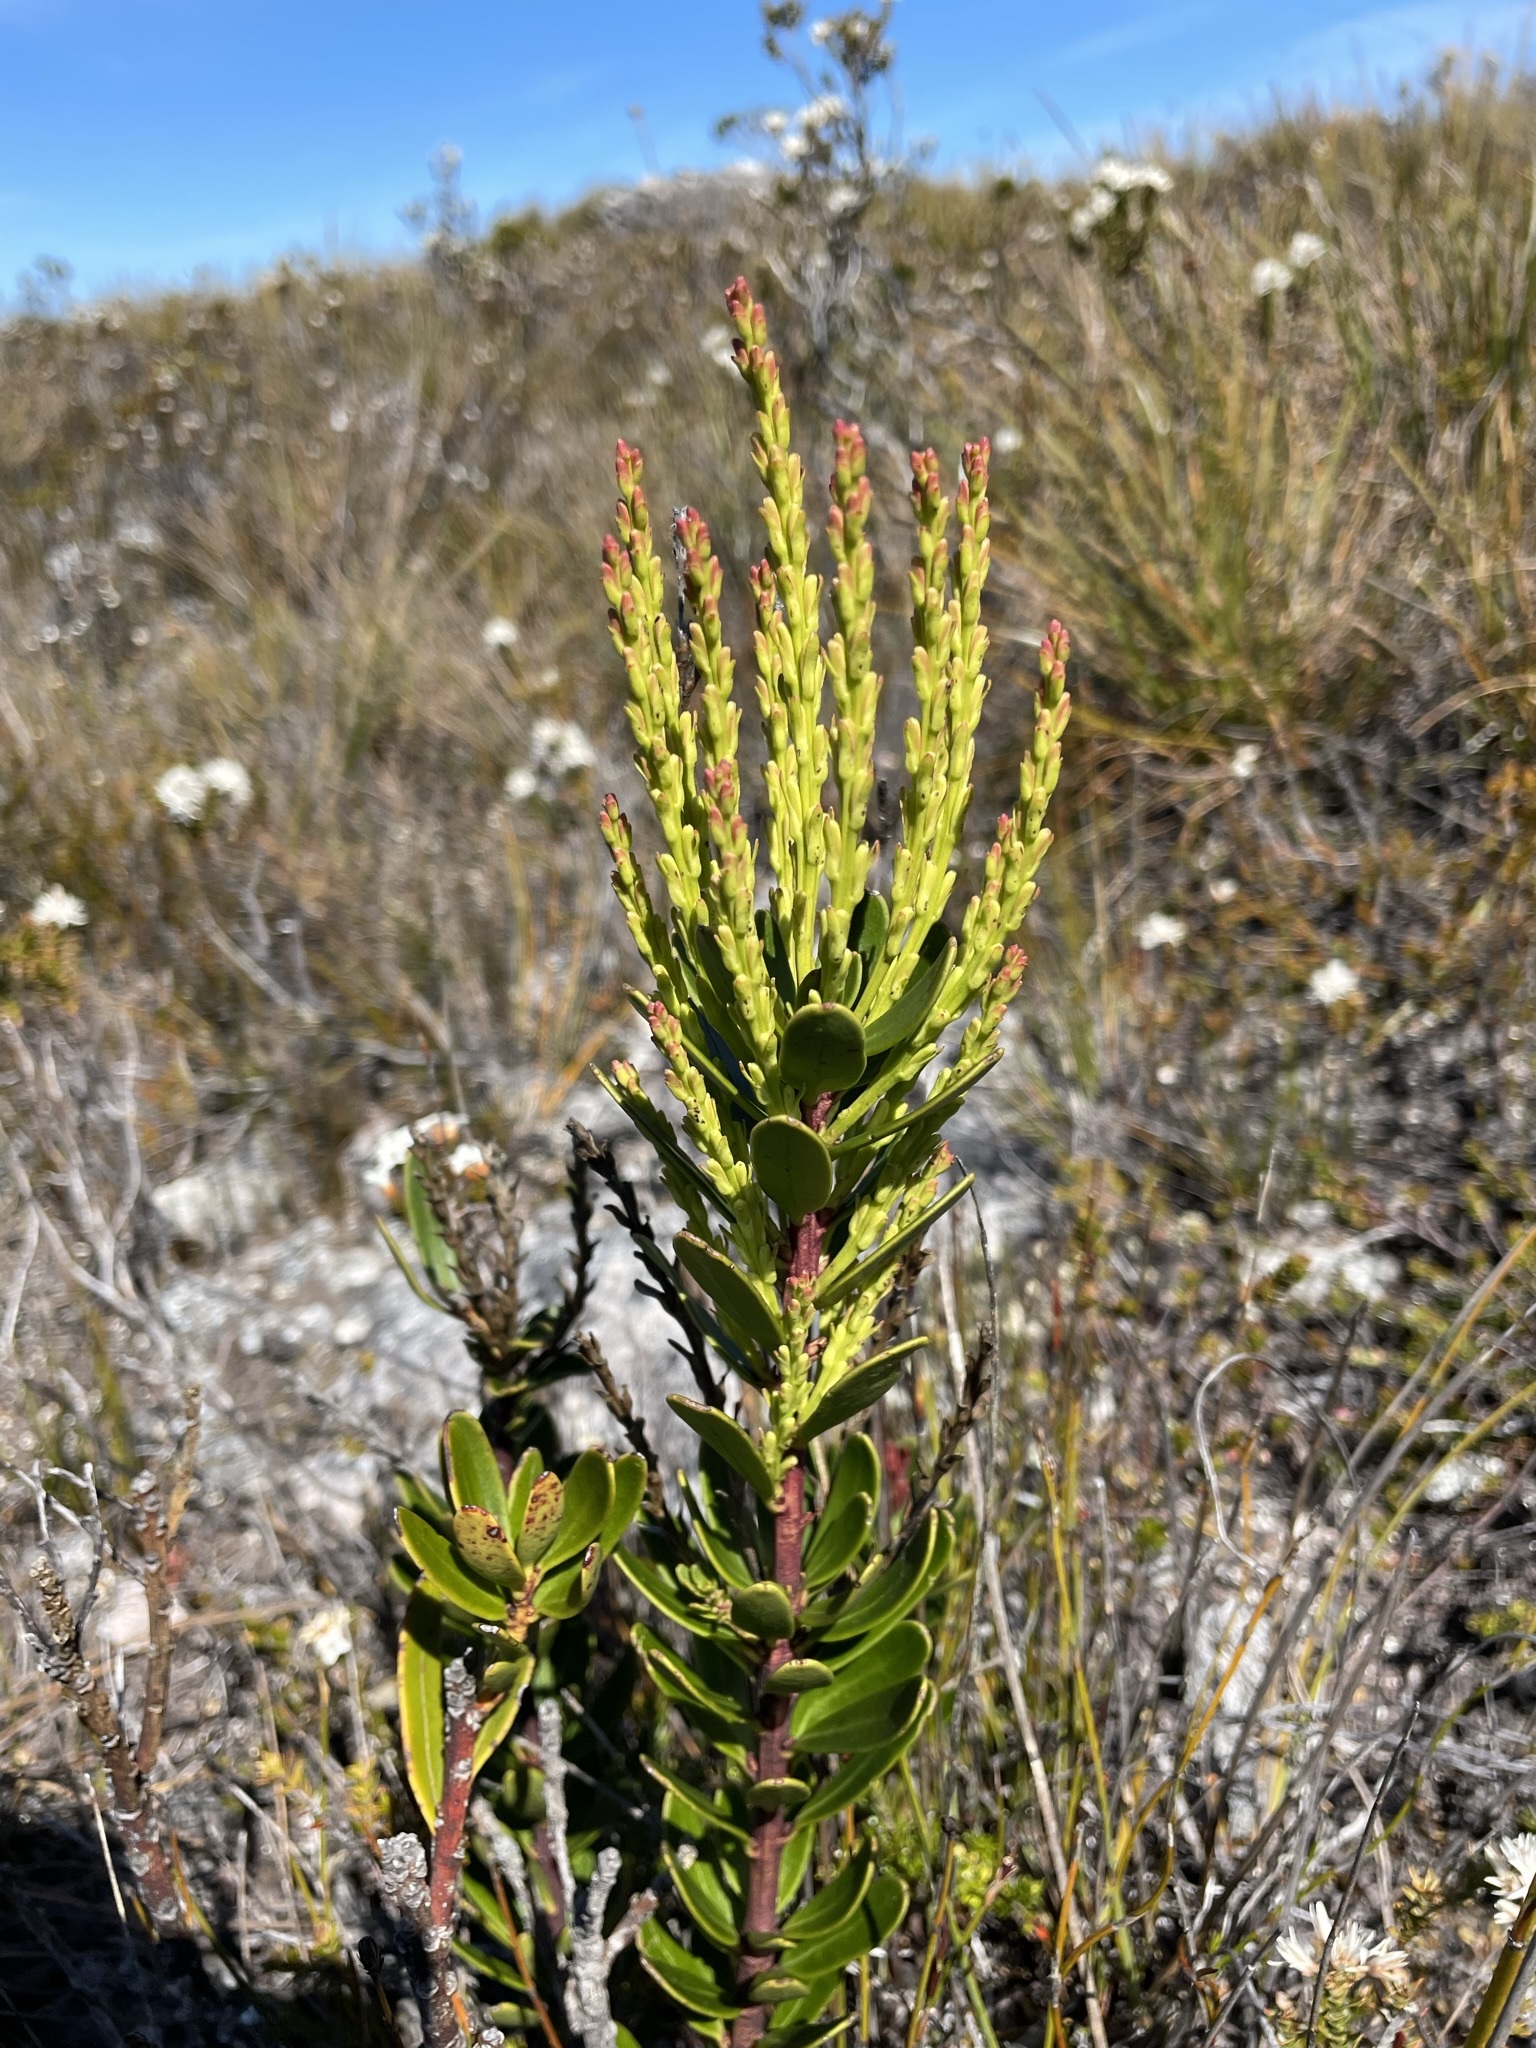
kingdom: Plantae
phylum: Tracheophyta
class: Magnoliopsida
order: Proteales
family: Proteaceae
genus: Agastachys
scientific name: Agastachys odorata
